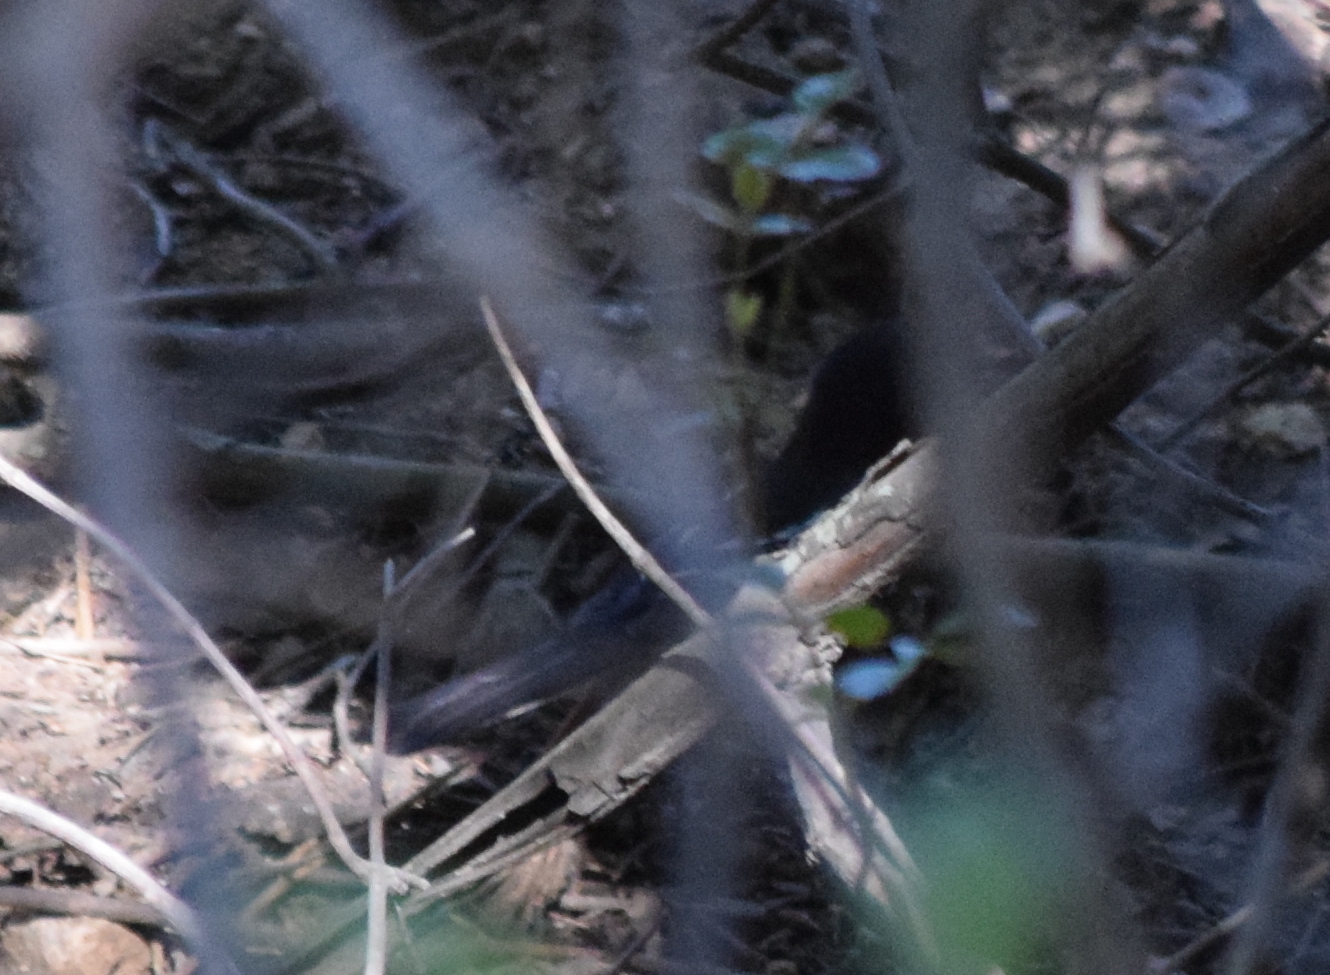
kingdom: Animalia
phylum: Chordata
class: Aves
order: Passeriformes
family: Passerellidae
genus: Pipilo
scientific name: Pipilo maculatus
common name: Spotted towhee
